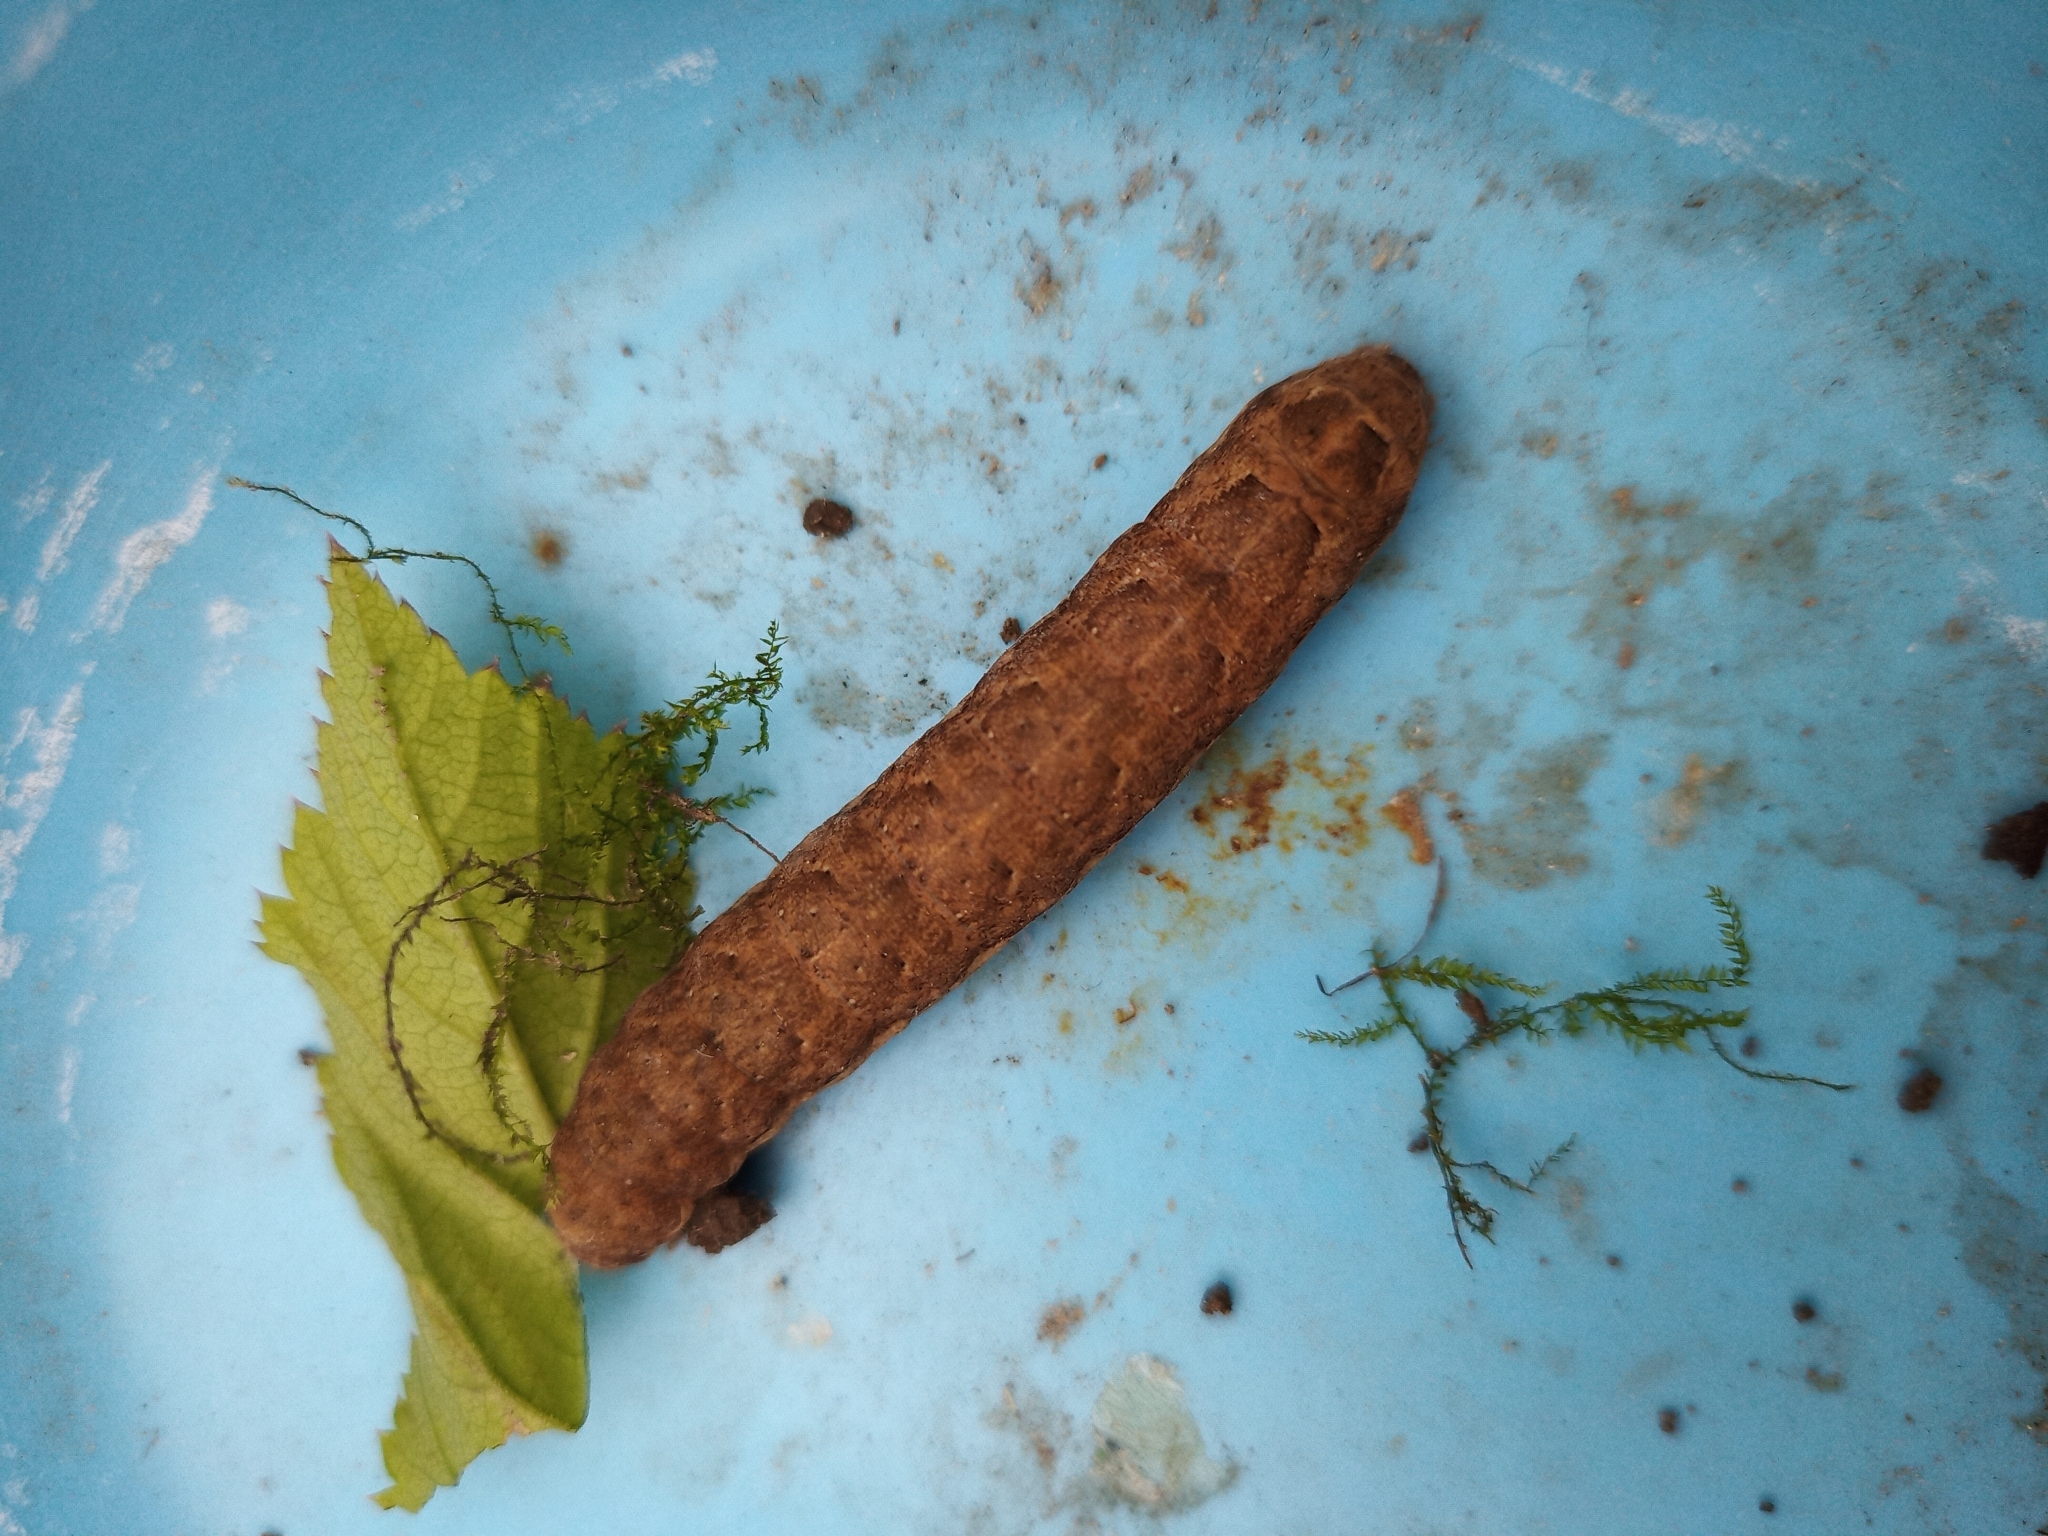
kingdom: Animalia
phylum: Arthropoda
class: Insecta
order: Lepidoptera
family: Noctuidae
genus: Noctua
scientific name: Noctua fimbriata
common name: Broad-bordered yellow underwing
